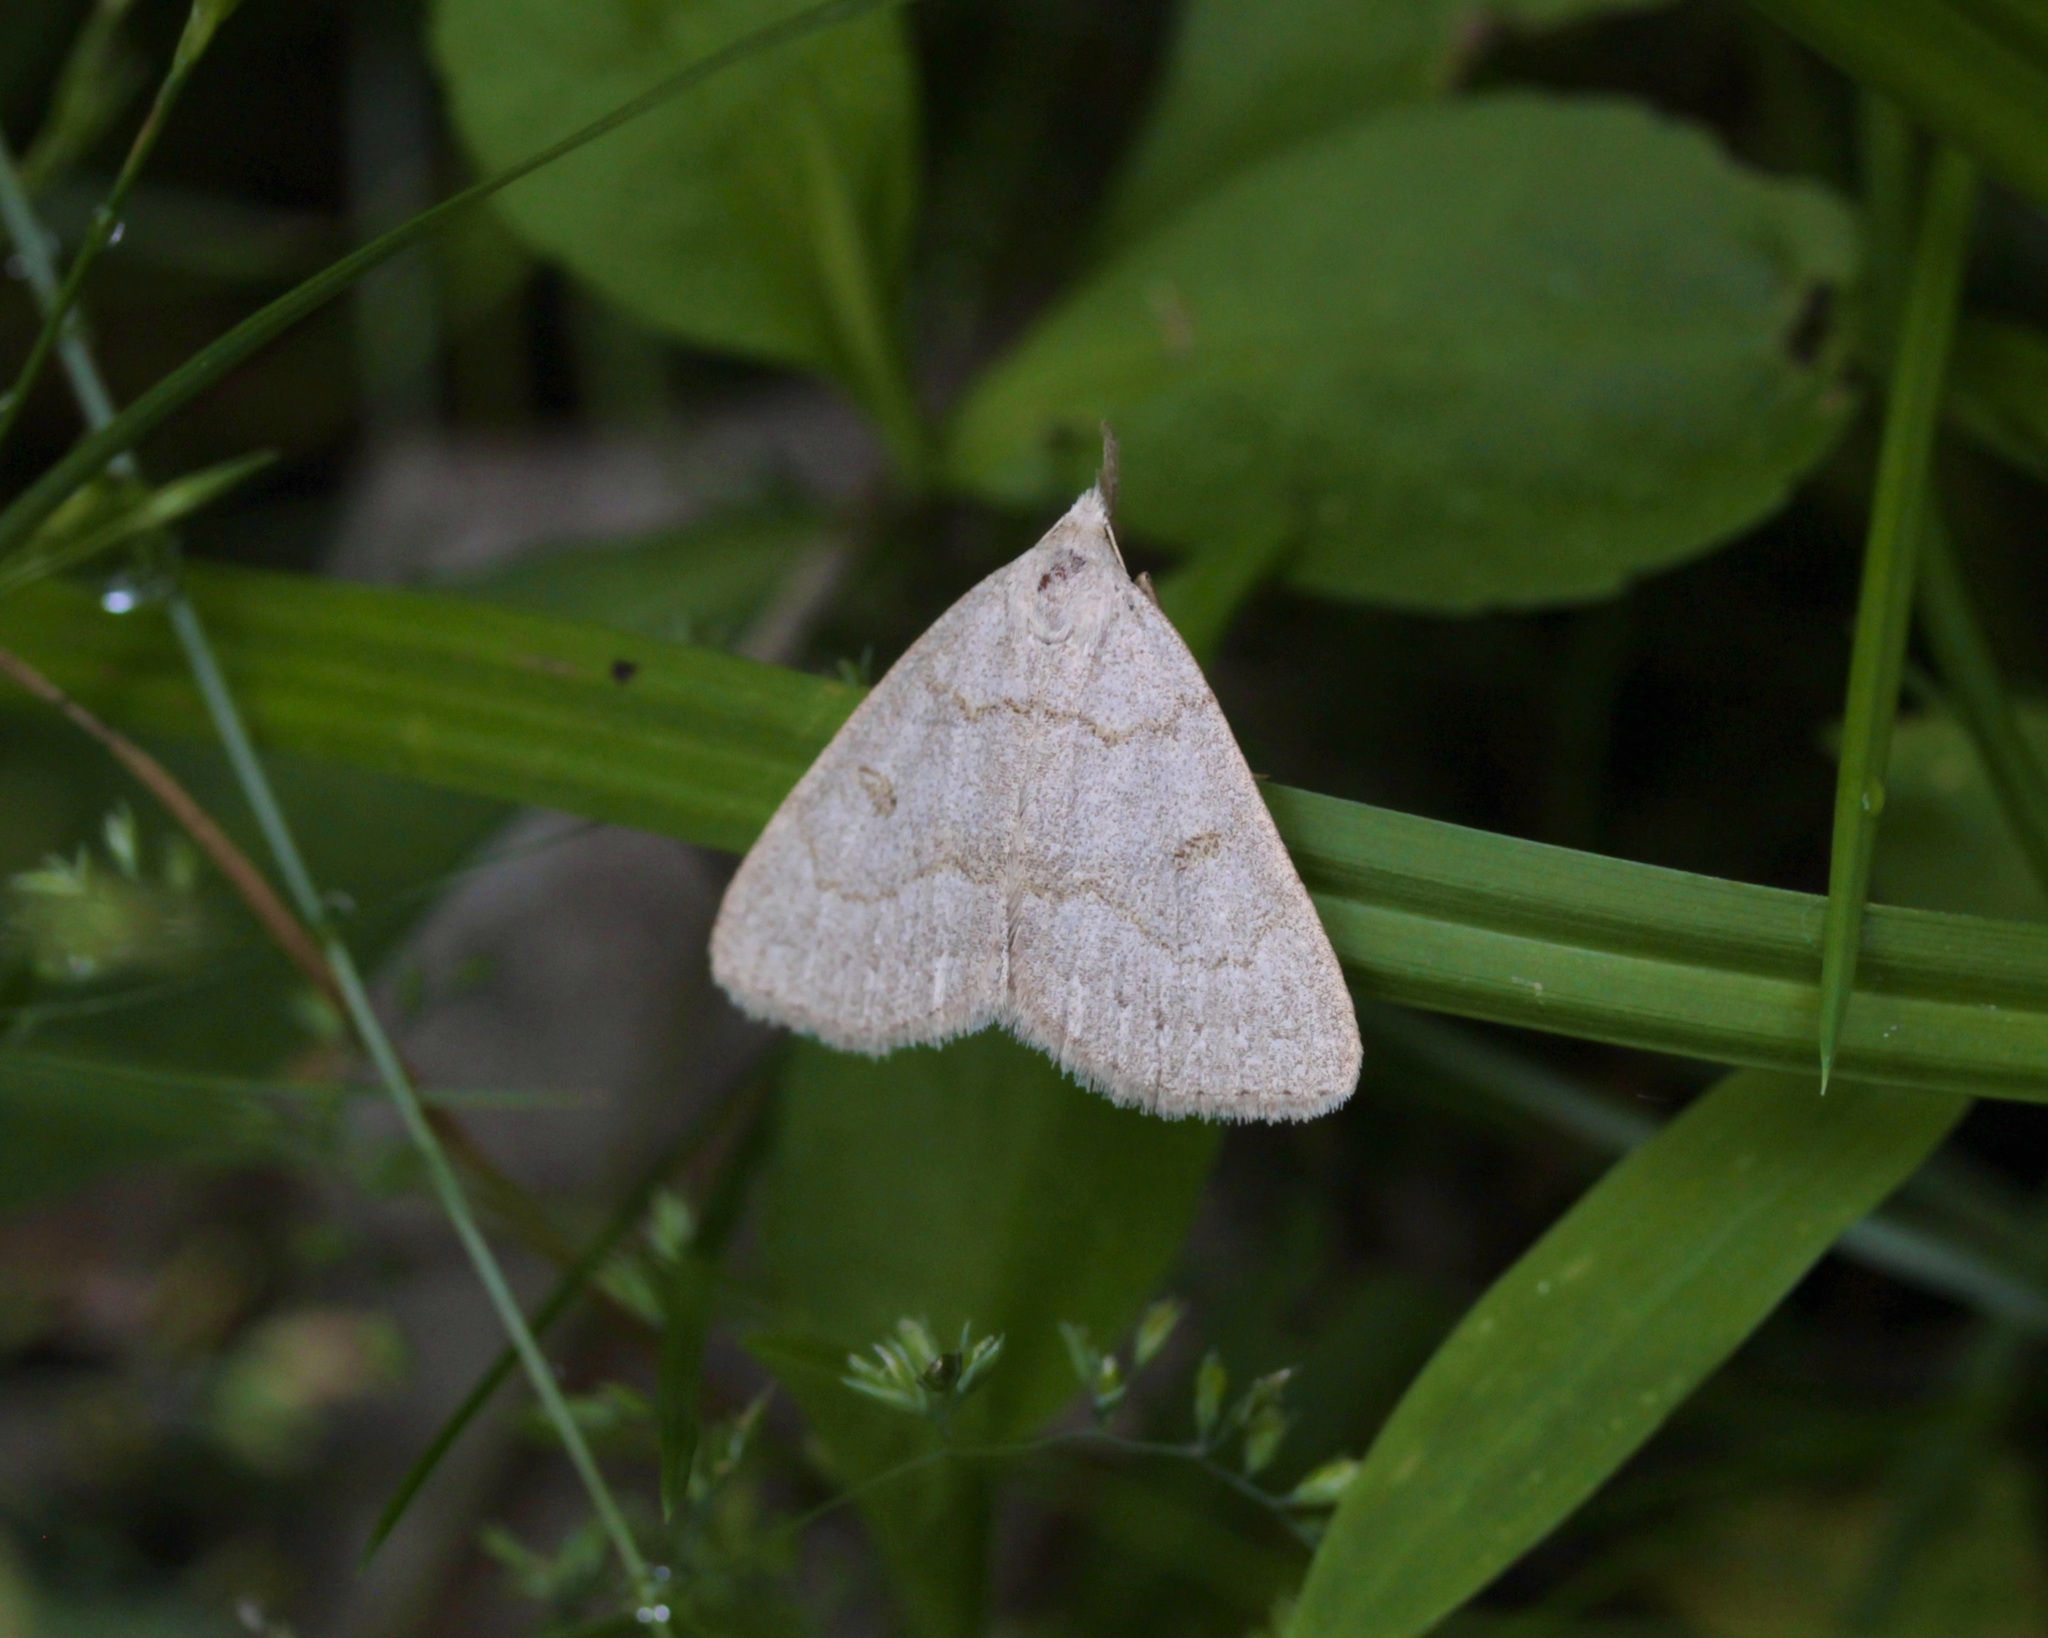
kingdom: Animalia
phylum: Arthropoda
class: Insecta
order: Lepidoptera
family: Erebidae
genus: Macrochilo
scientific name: Macrochilo morbidalis
